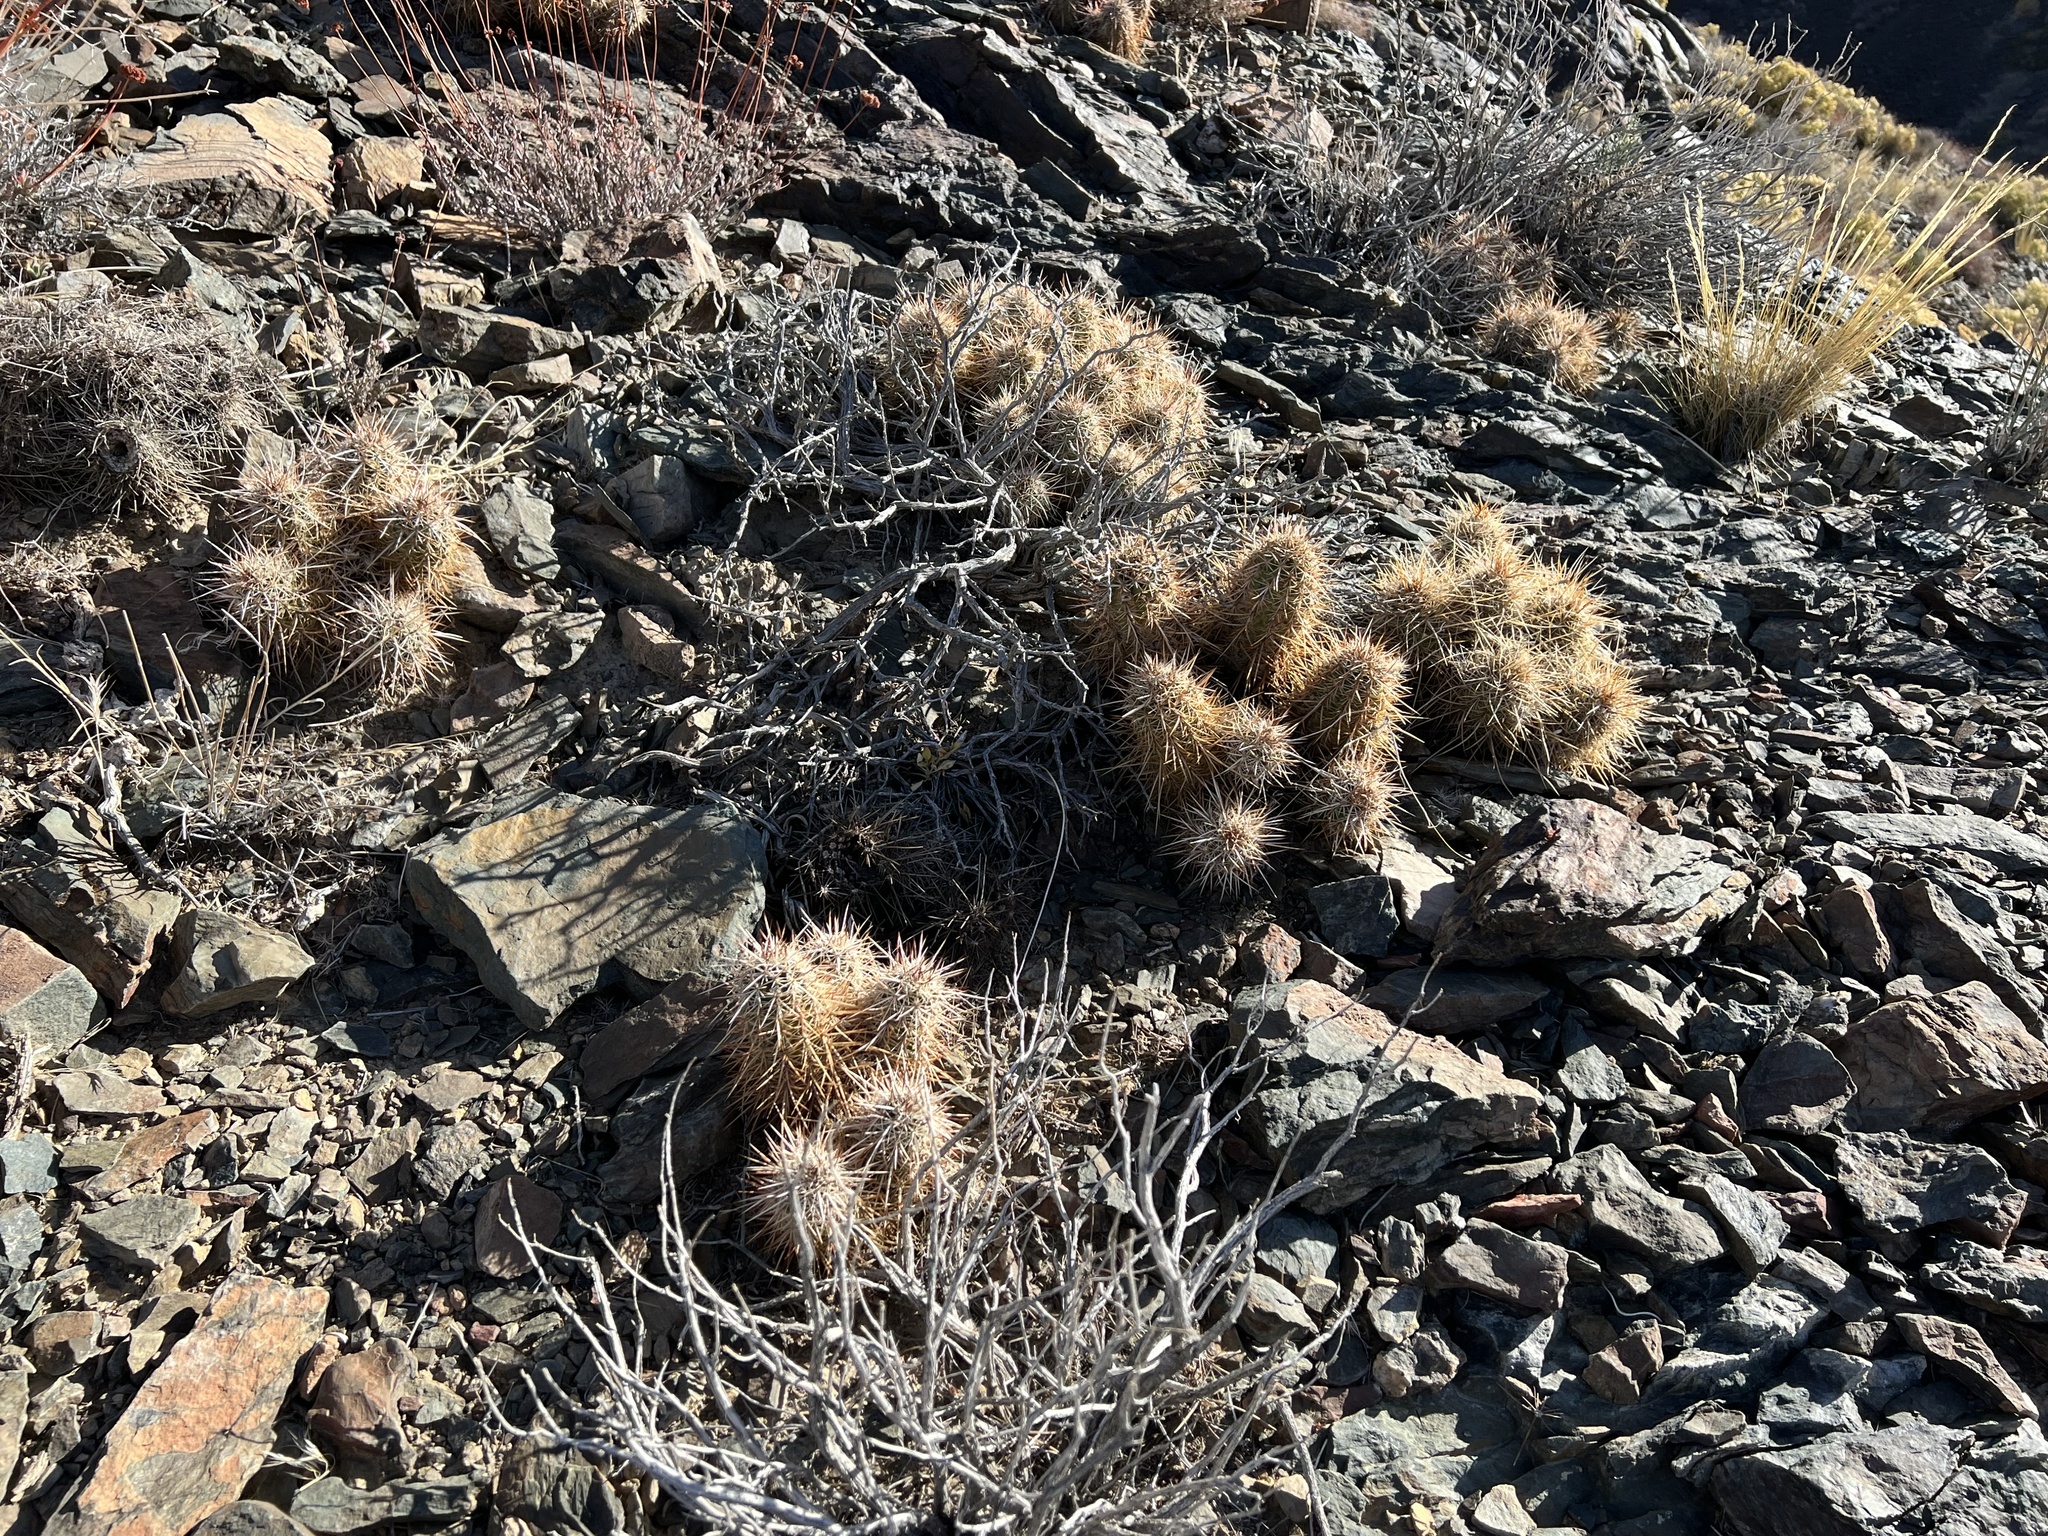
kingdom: Plantae
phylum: Tracheophyta
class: Magnoliopsida
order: Caryophyllales
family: Cactaceae
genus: Echinocereus
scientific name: Echinocereus engelmannii
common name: Engelmann's hedgehog cactus
